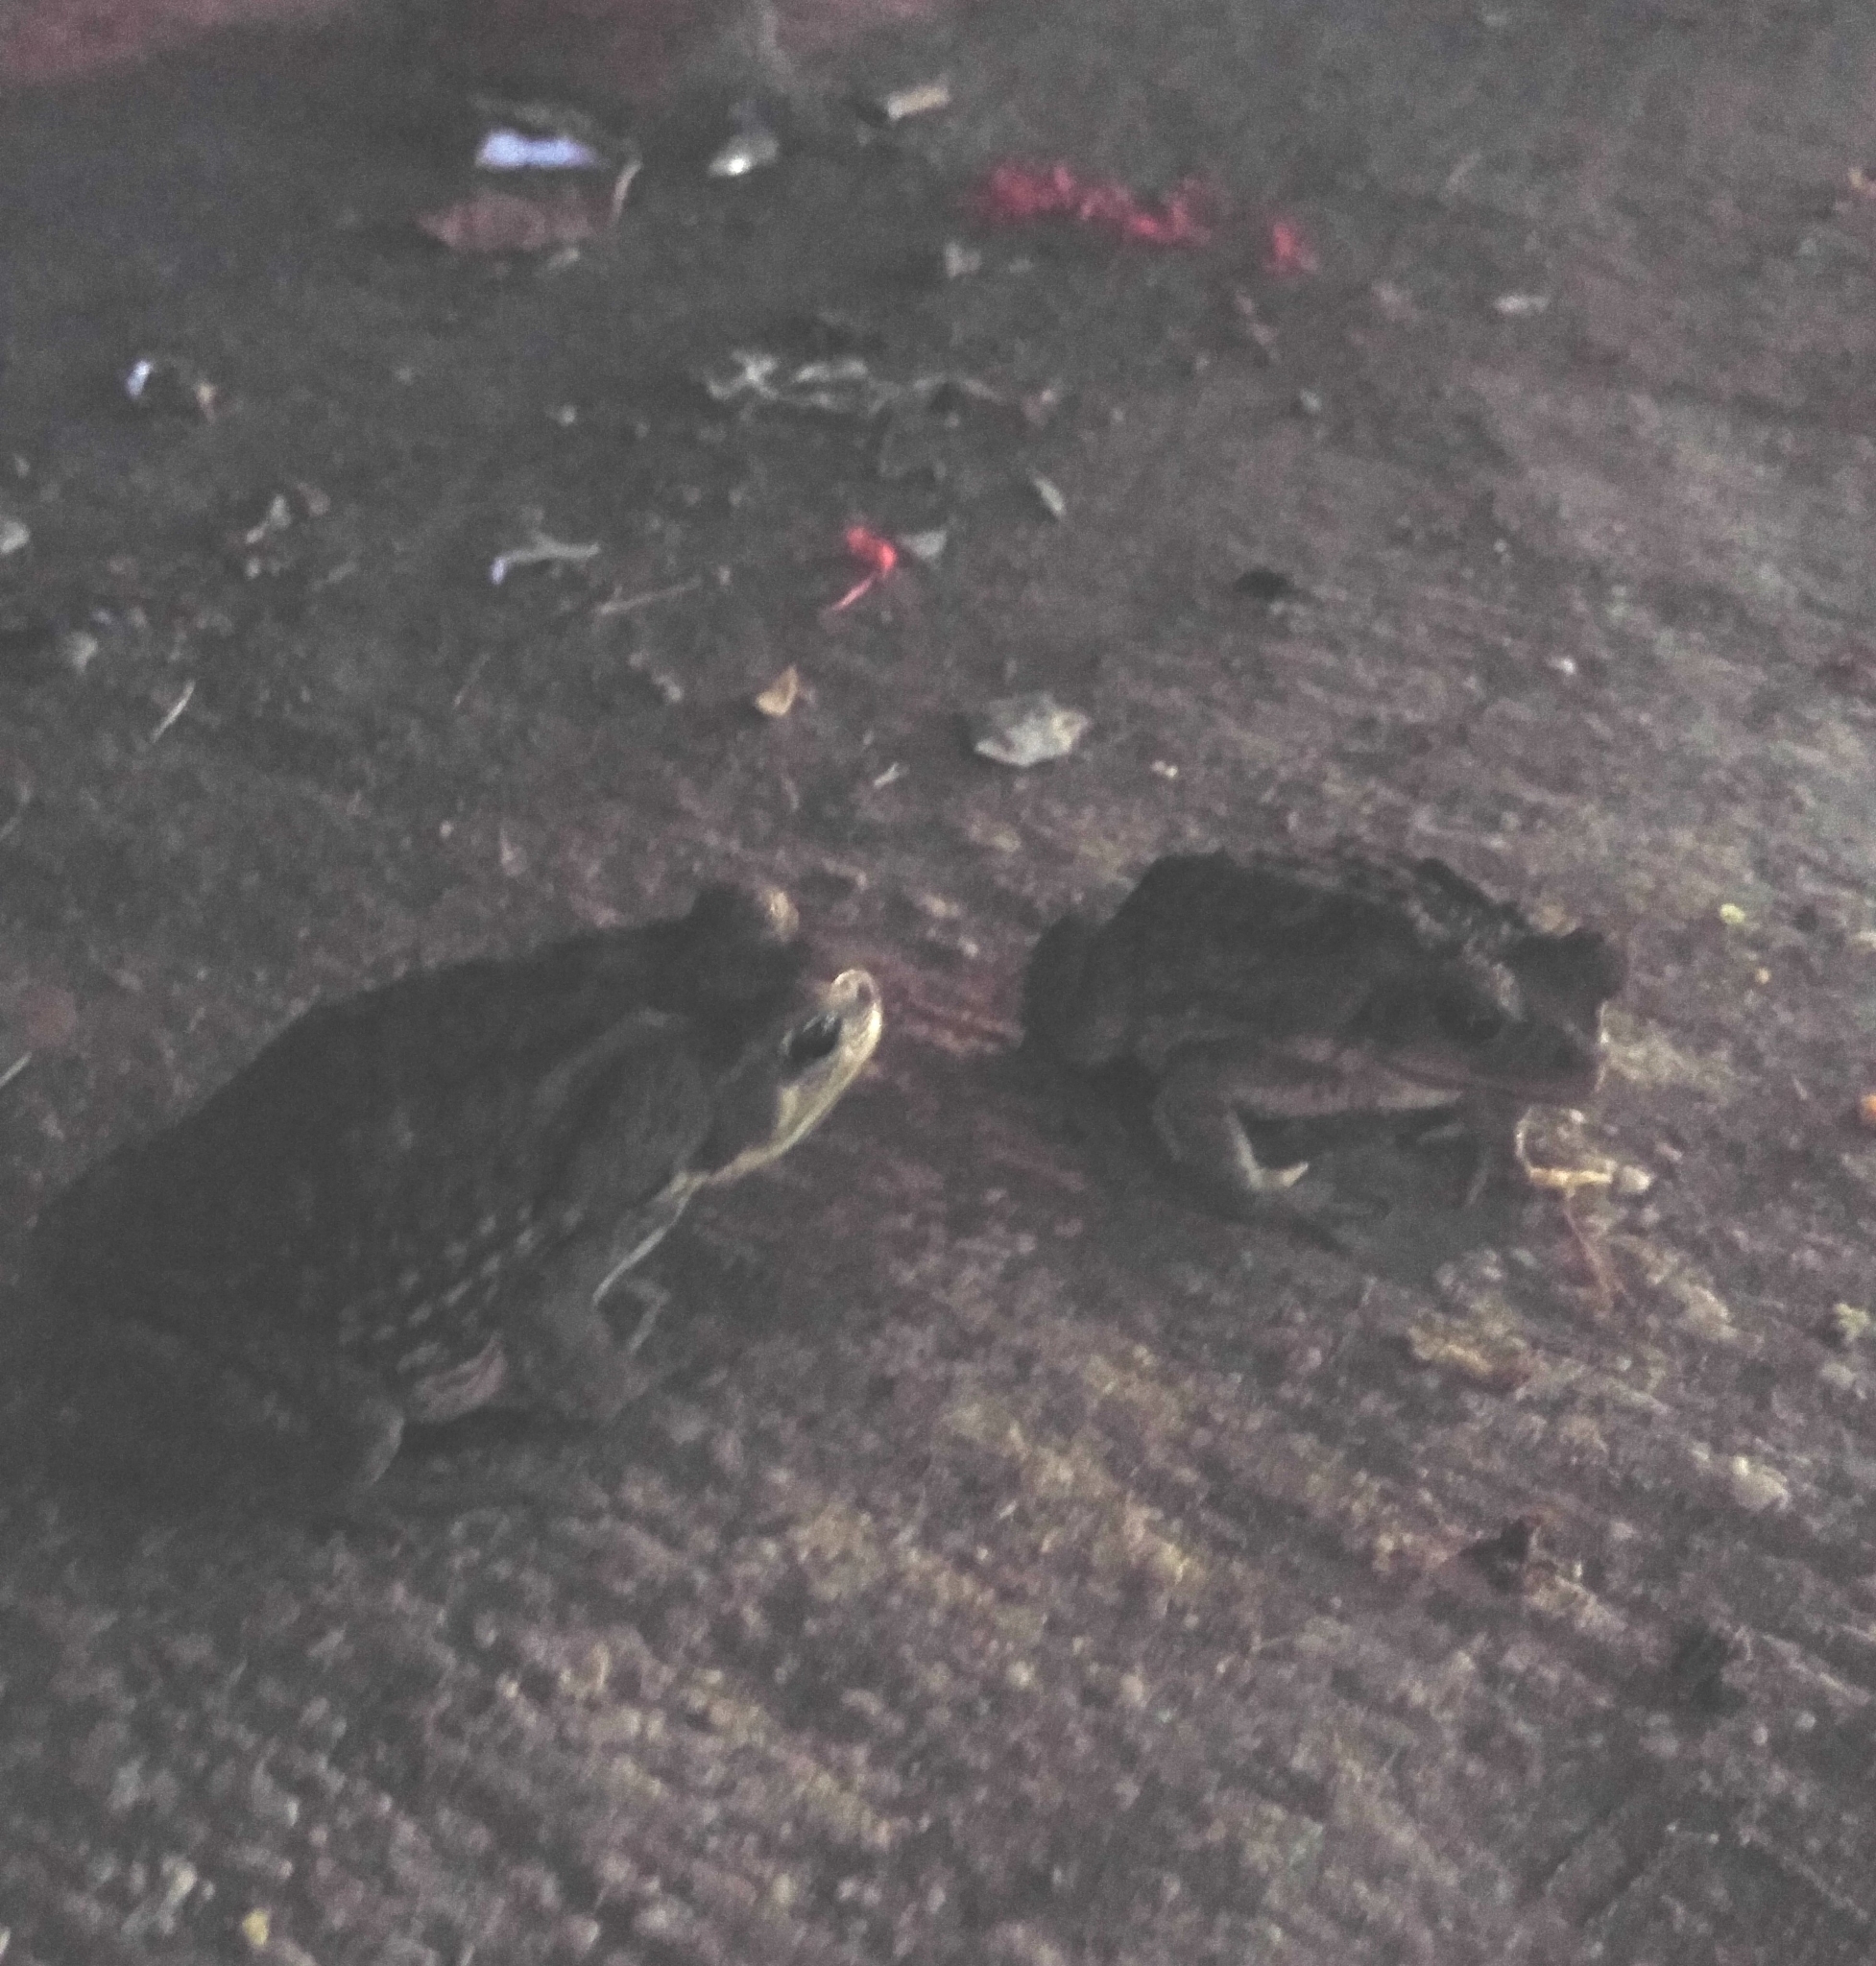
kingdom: Animalia
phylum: Chordata
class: Amphibia
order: Anura
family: Bufonidae
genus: Rhinella
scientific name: Rhinella horribilis
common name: Mesoamerican cane toad
